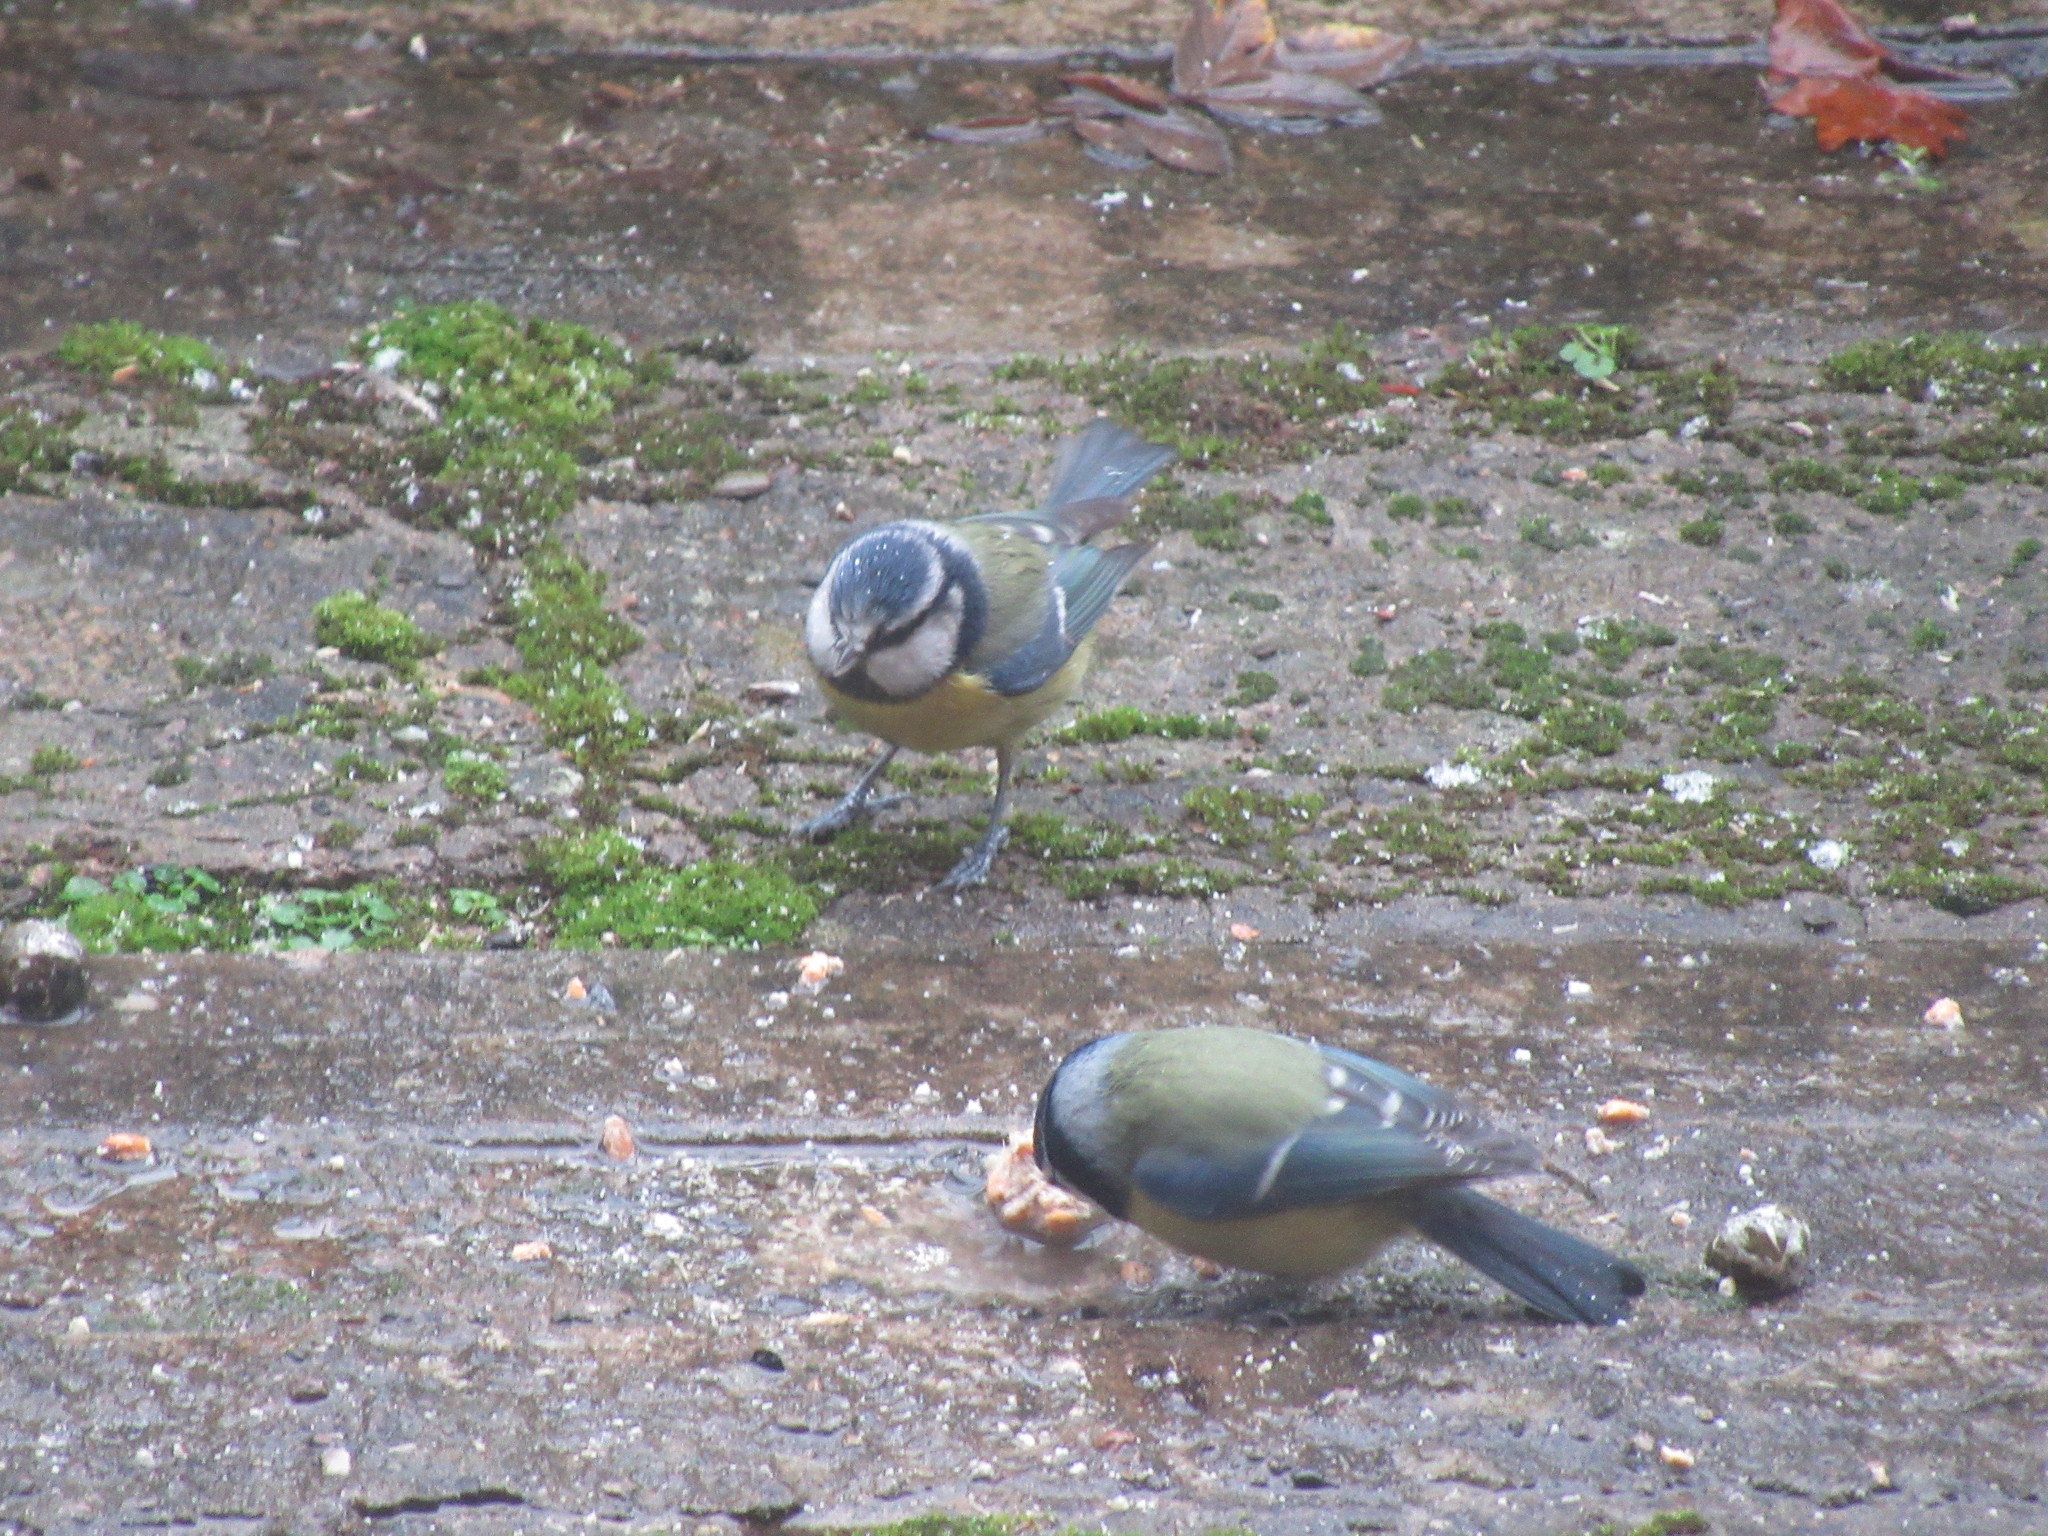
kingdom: Animalia
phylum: Chordata
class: Aves
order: Passeriformes
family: Paridae
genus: Cyanistes
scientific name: Cyanistes caeruleus
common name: Eurasian blue tit
